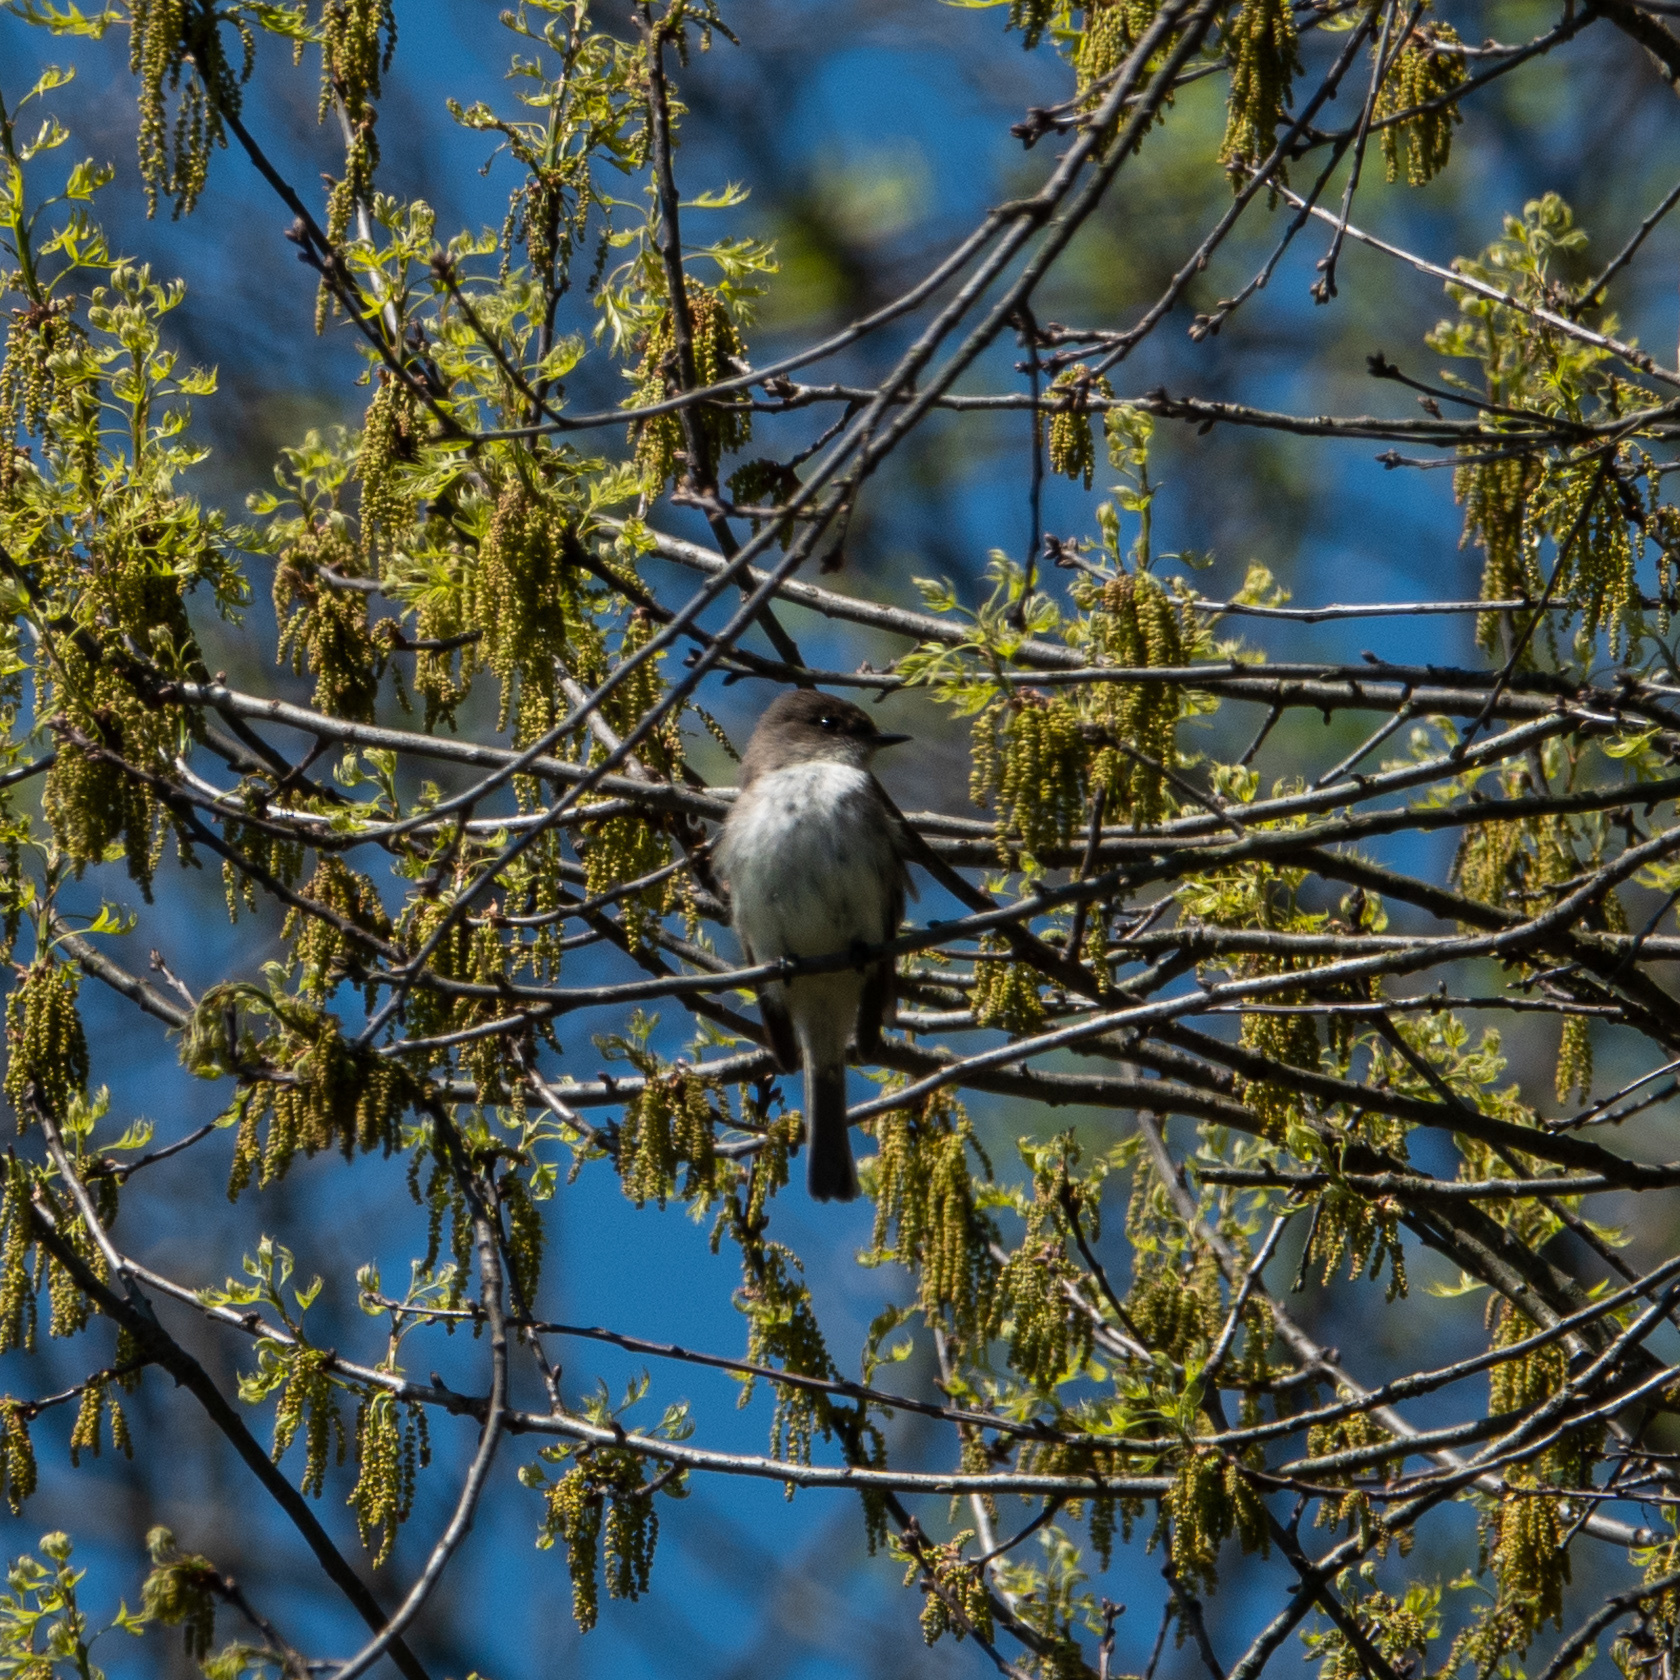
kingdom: Animalia
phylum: Chordata
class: Aves
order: Passeriformes
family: Tyrannidae
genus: Sayornis
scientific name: Sayornis phoebe
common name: Eastern phoebe
